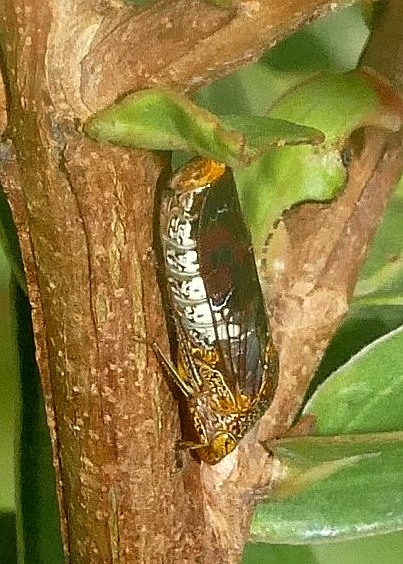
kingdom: Animalia
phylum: Arthropoda
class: Insecta
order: Hemiptera
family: Cicadellidae
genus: Homalodisca
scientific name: Homalodisca vitripennis
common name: Glassy-winged sharpshooter
